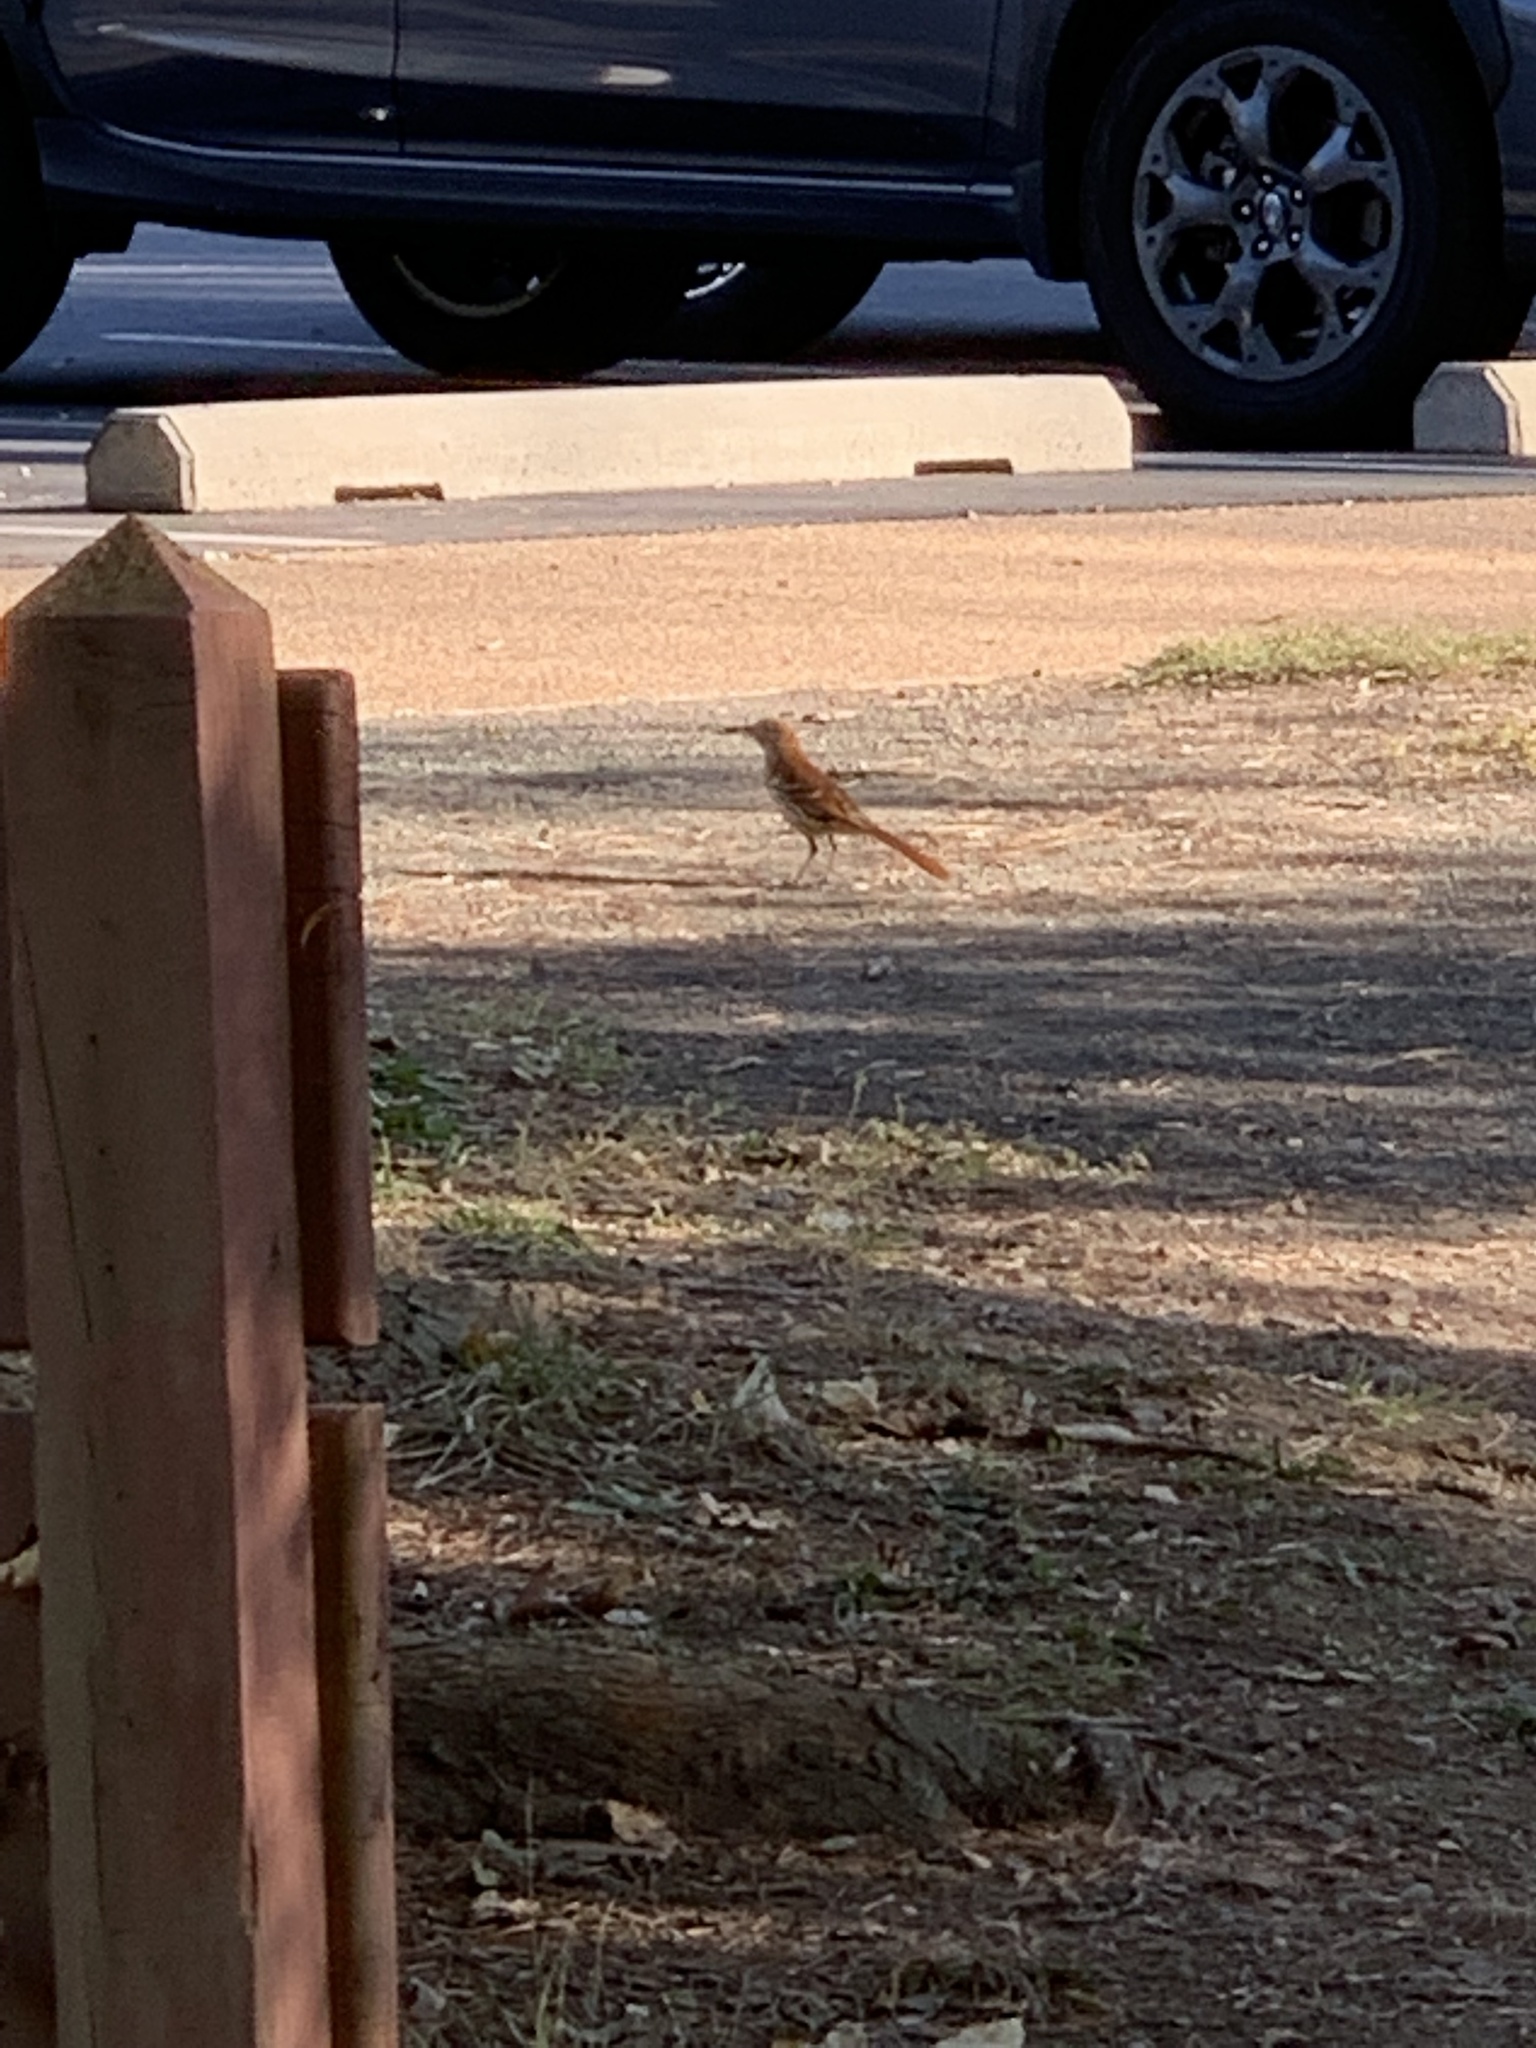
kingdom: Animalia
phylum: Chordata
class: Aves
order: Passeriformes
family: Mimidae
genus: Toxostoma
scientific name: Toxostoma rufum
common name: Brown thrasher
